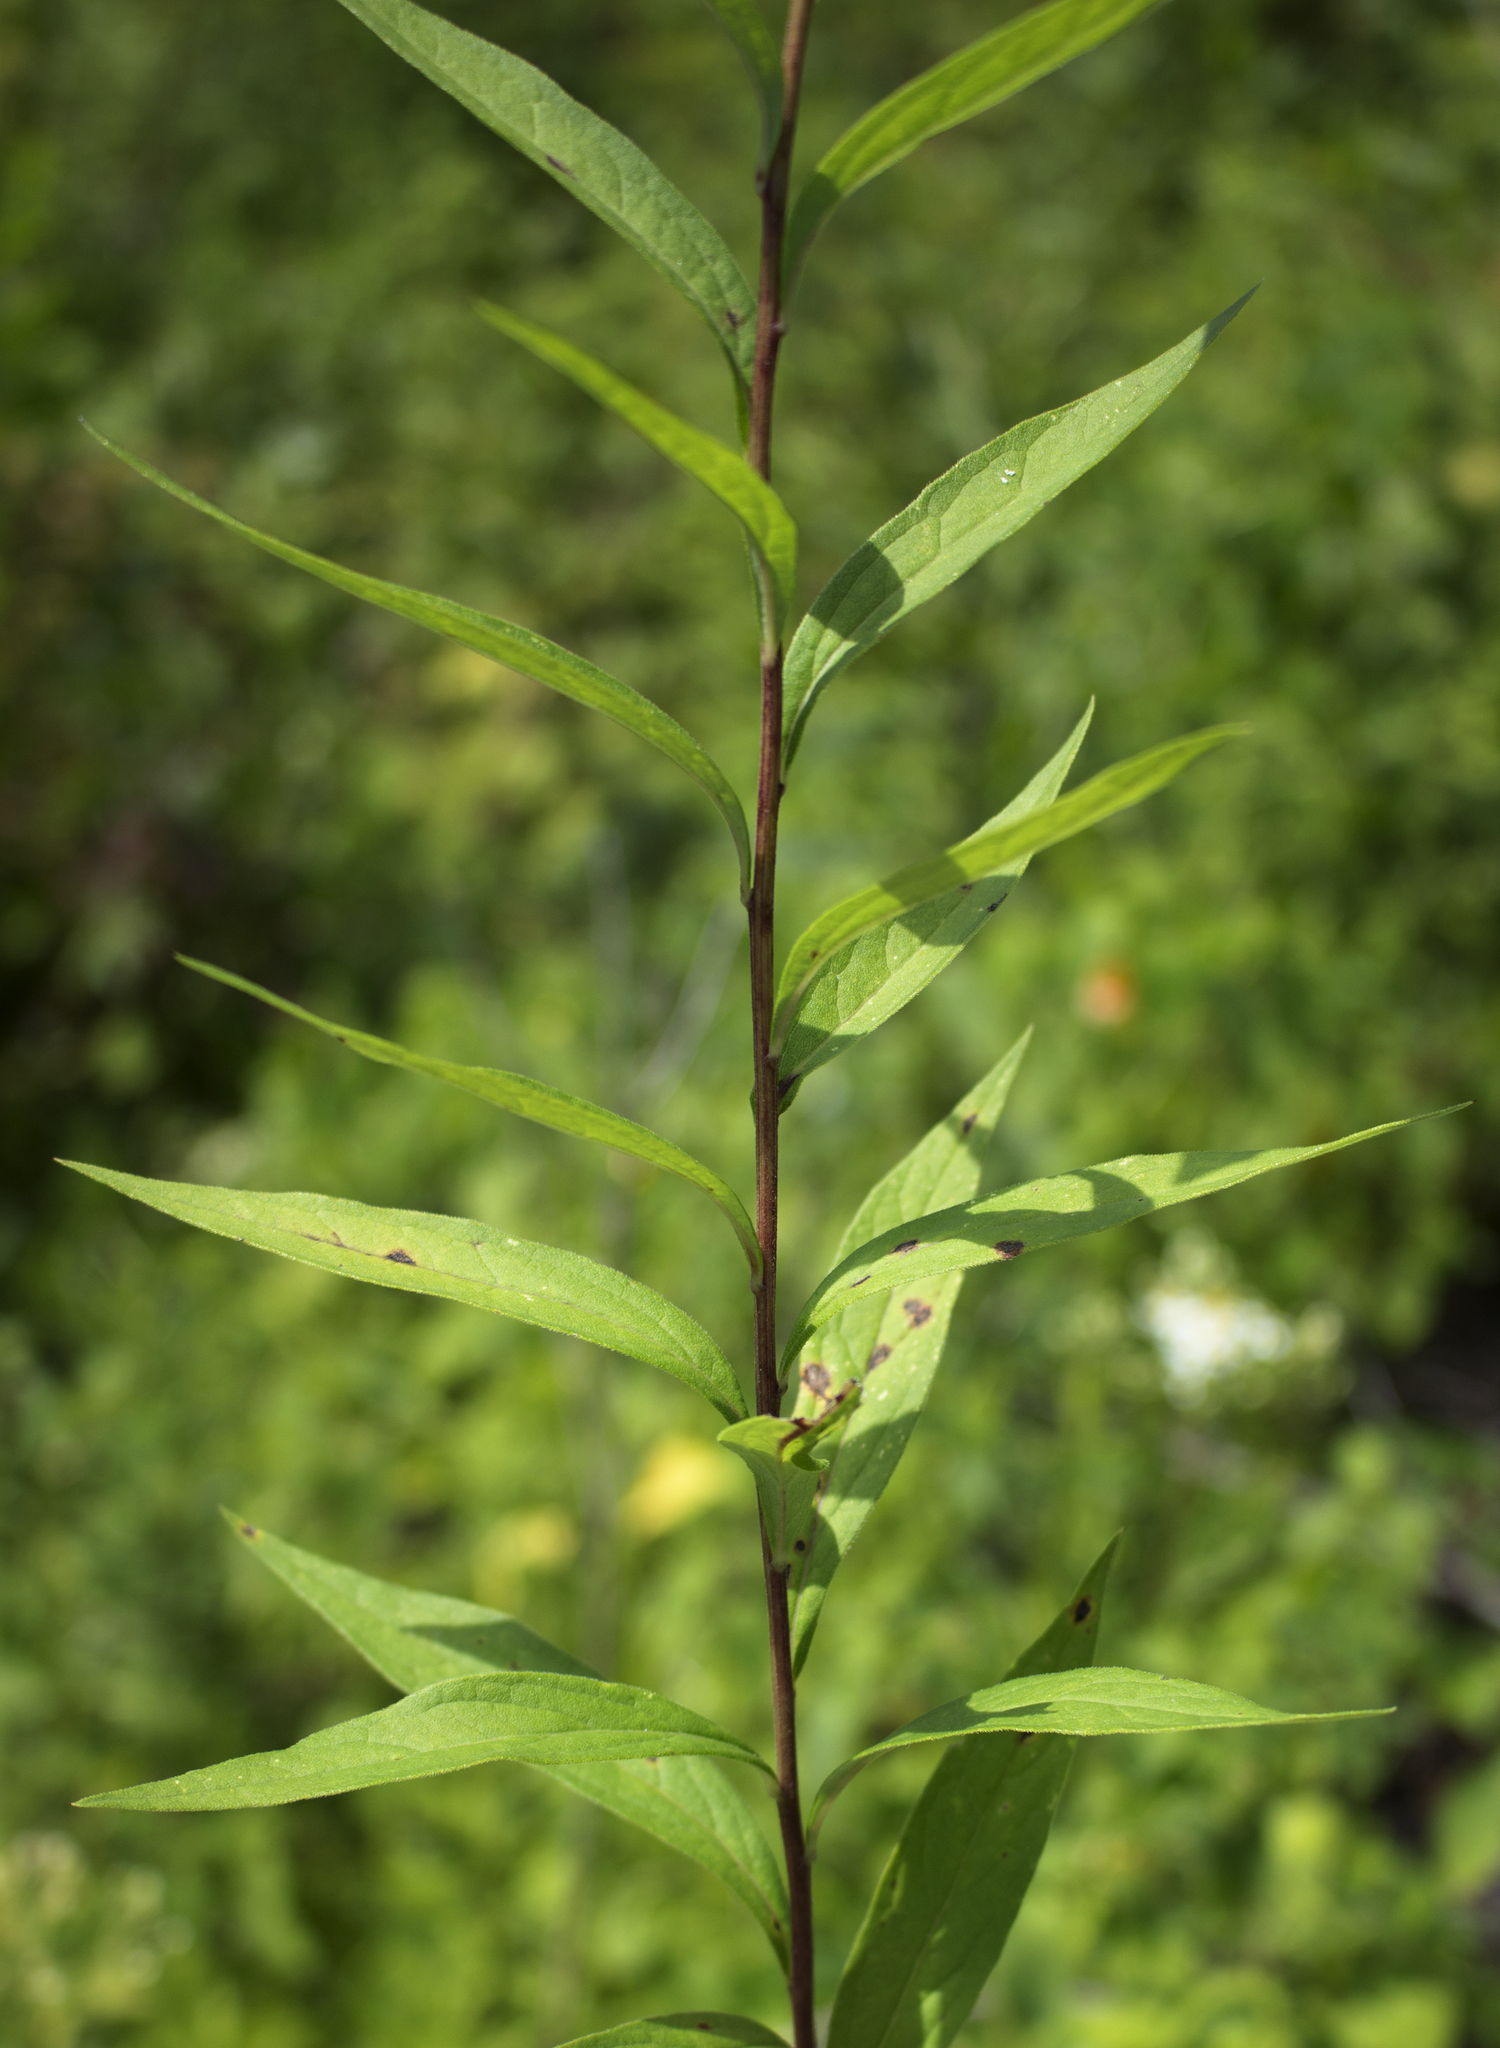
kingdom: Plantae
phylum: Tracheophyta
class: Magnoliopsida
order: Asterales
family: Asteraceae
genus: Doellingeria
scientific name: Doellingeria umbellata
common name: Flat-top white aster
